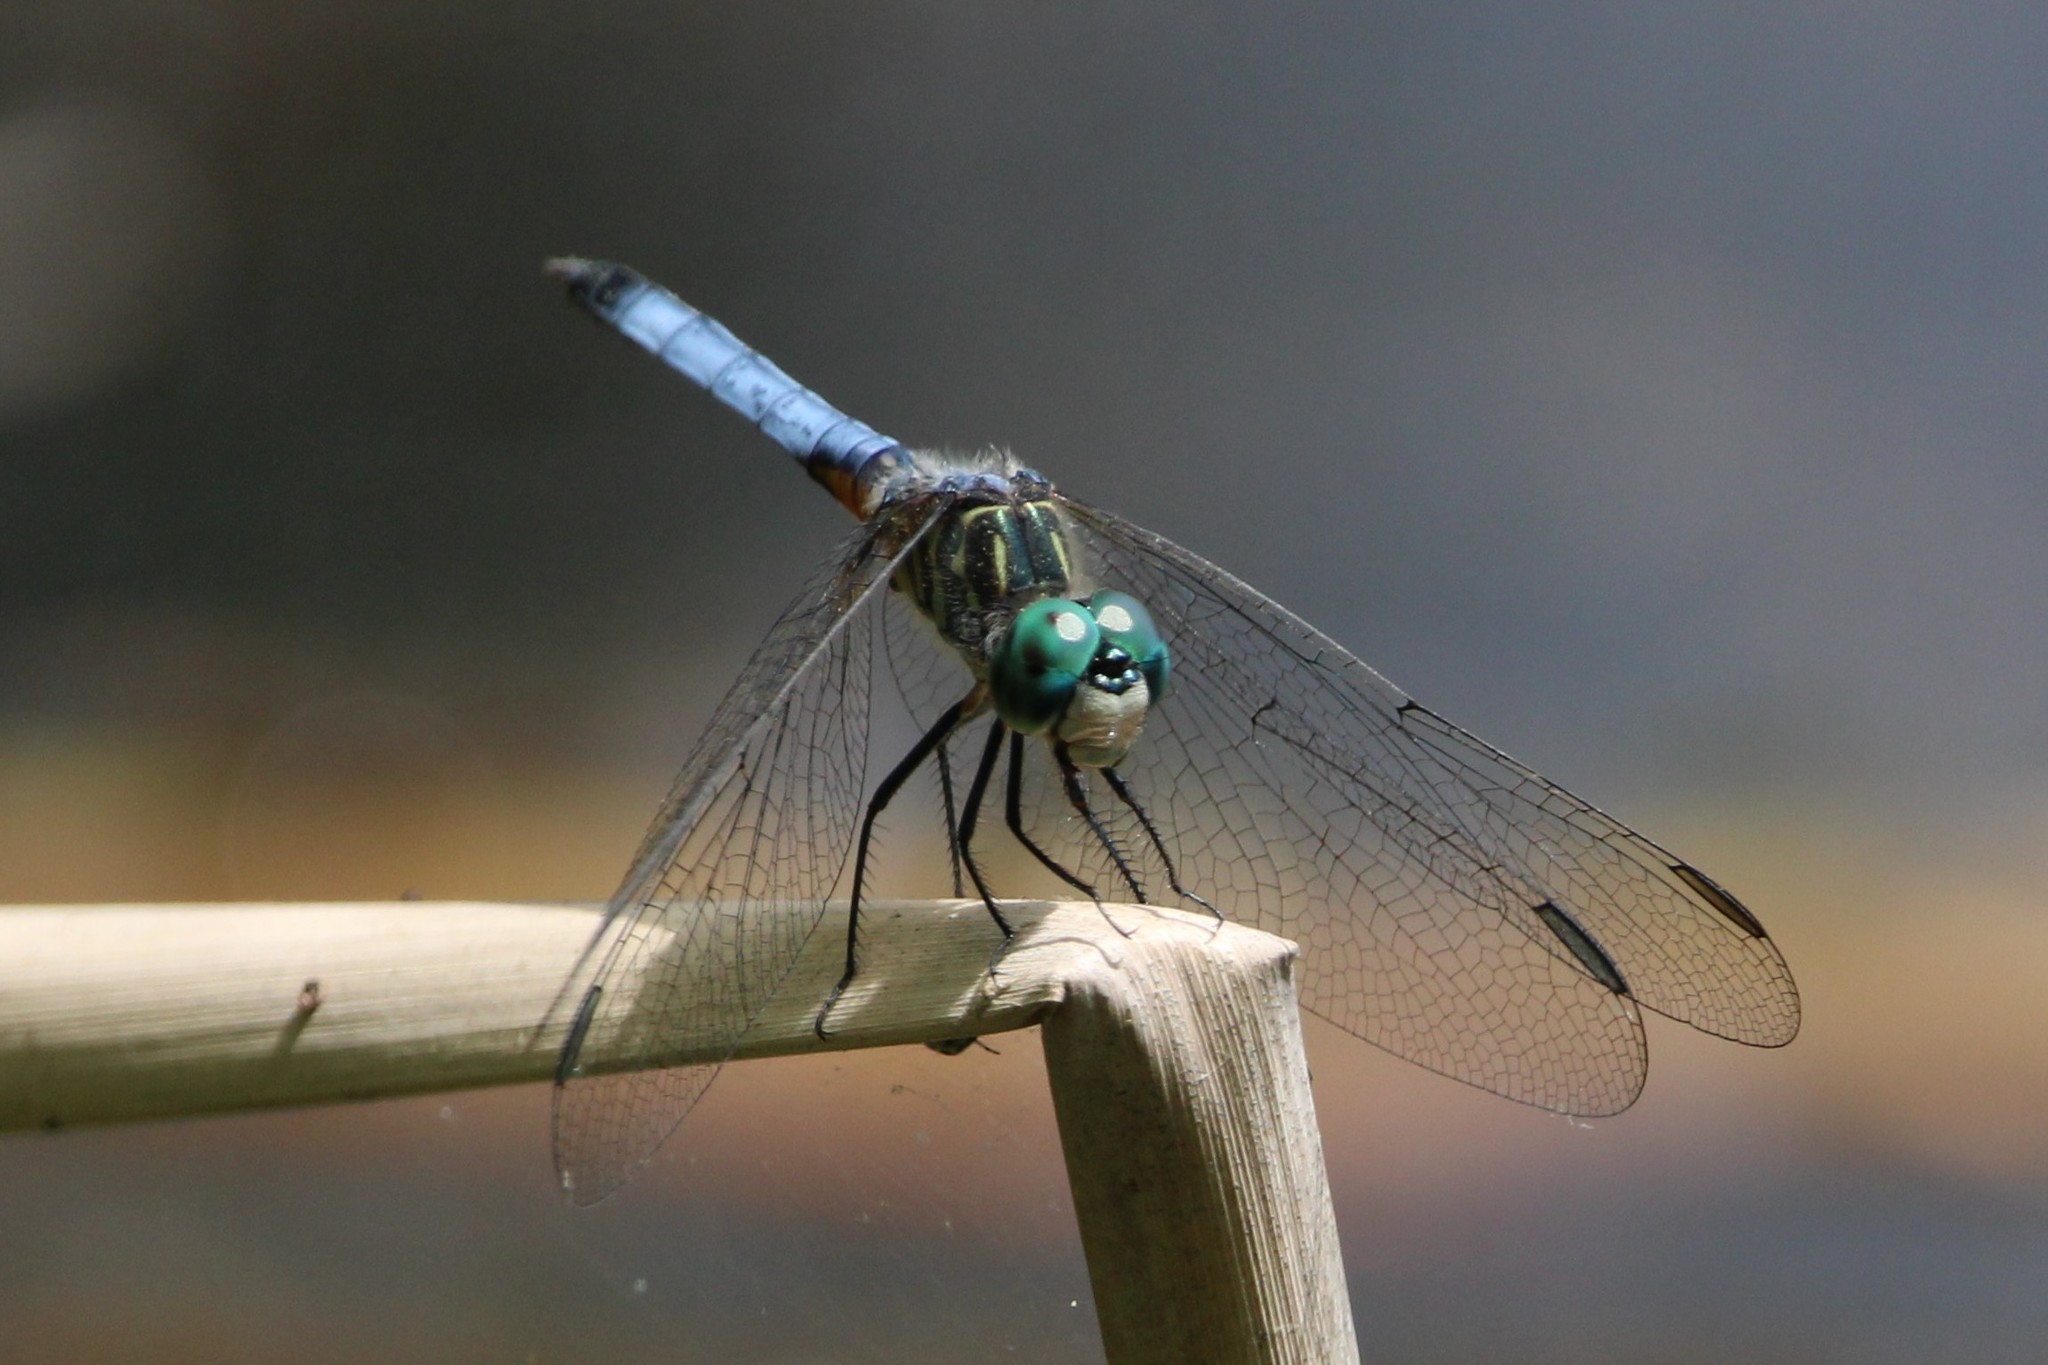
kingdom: Animalia
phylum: Arthropoda
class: Insecta
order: Odonata
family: Libellulidae
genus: Pachydiplax
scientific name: Pachydiplax longipennis
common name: Blue dasher
